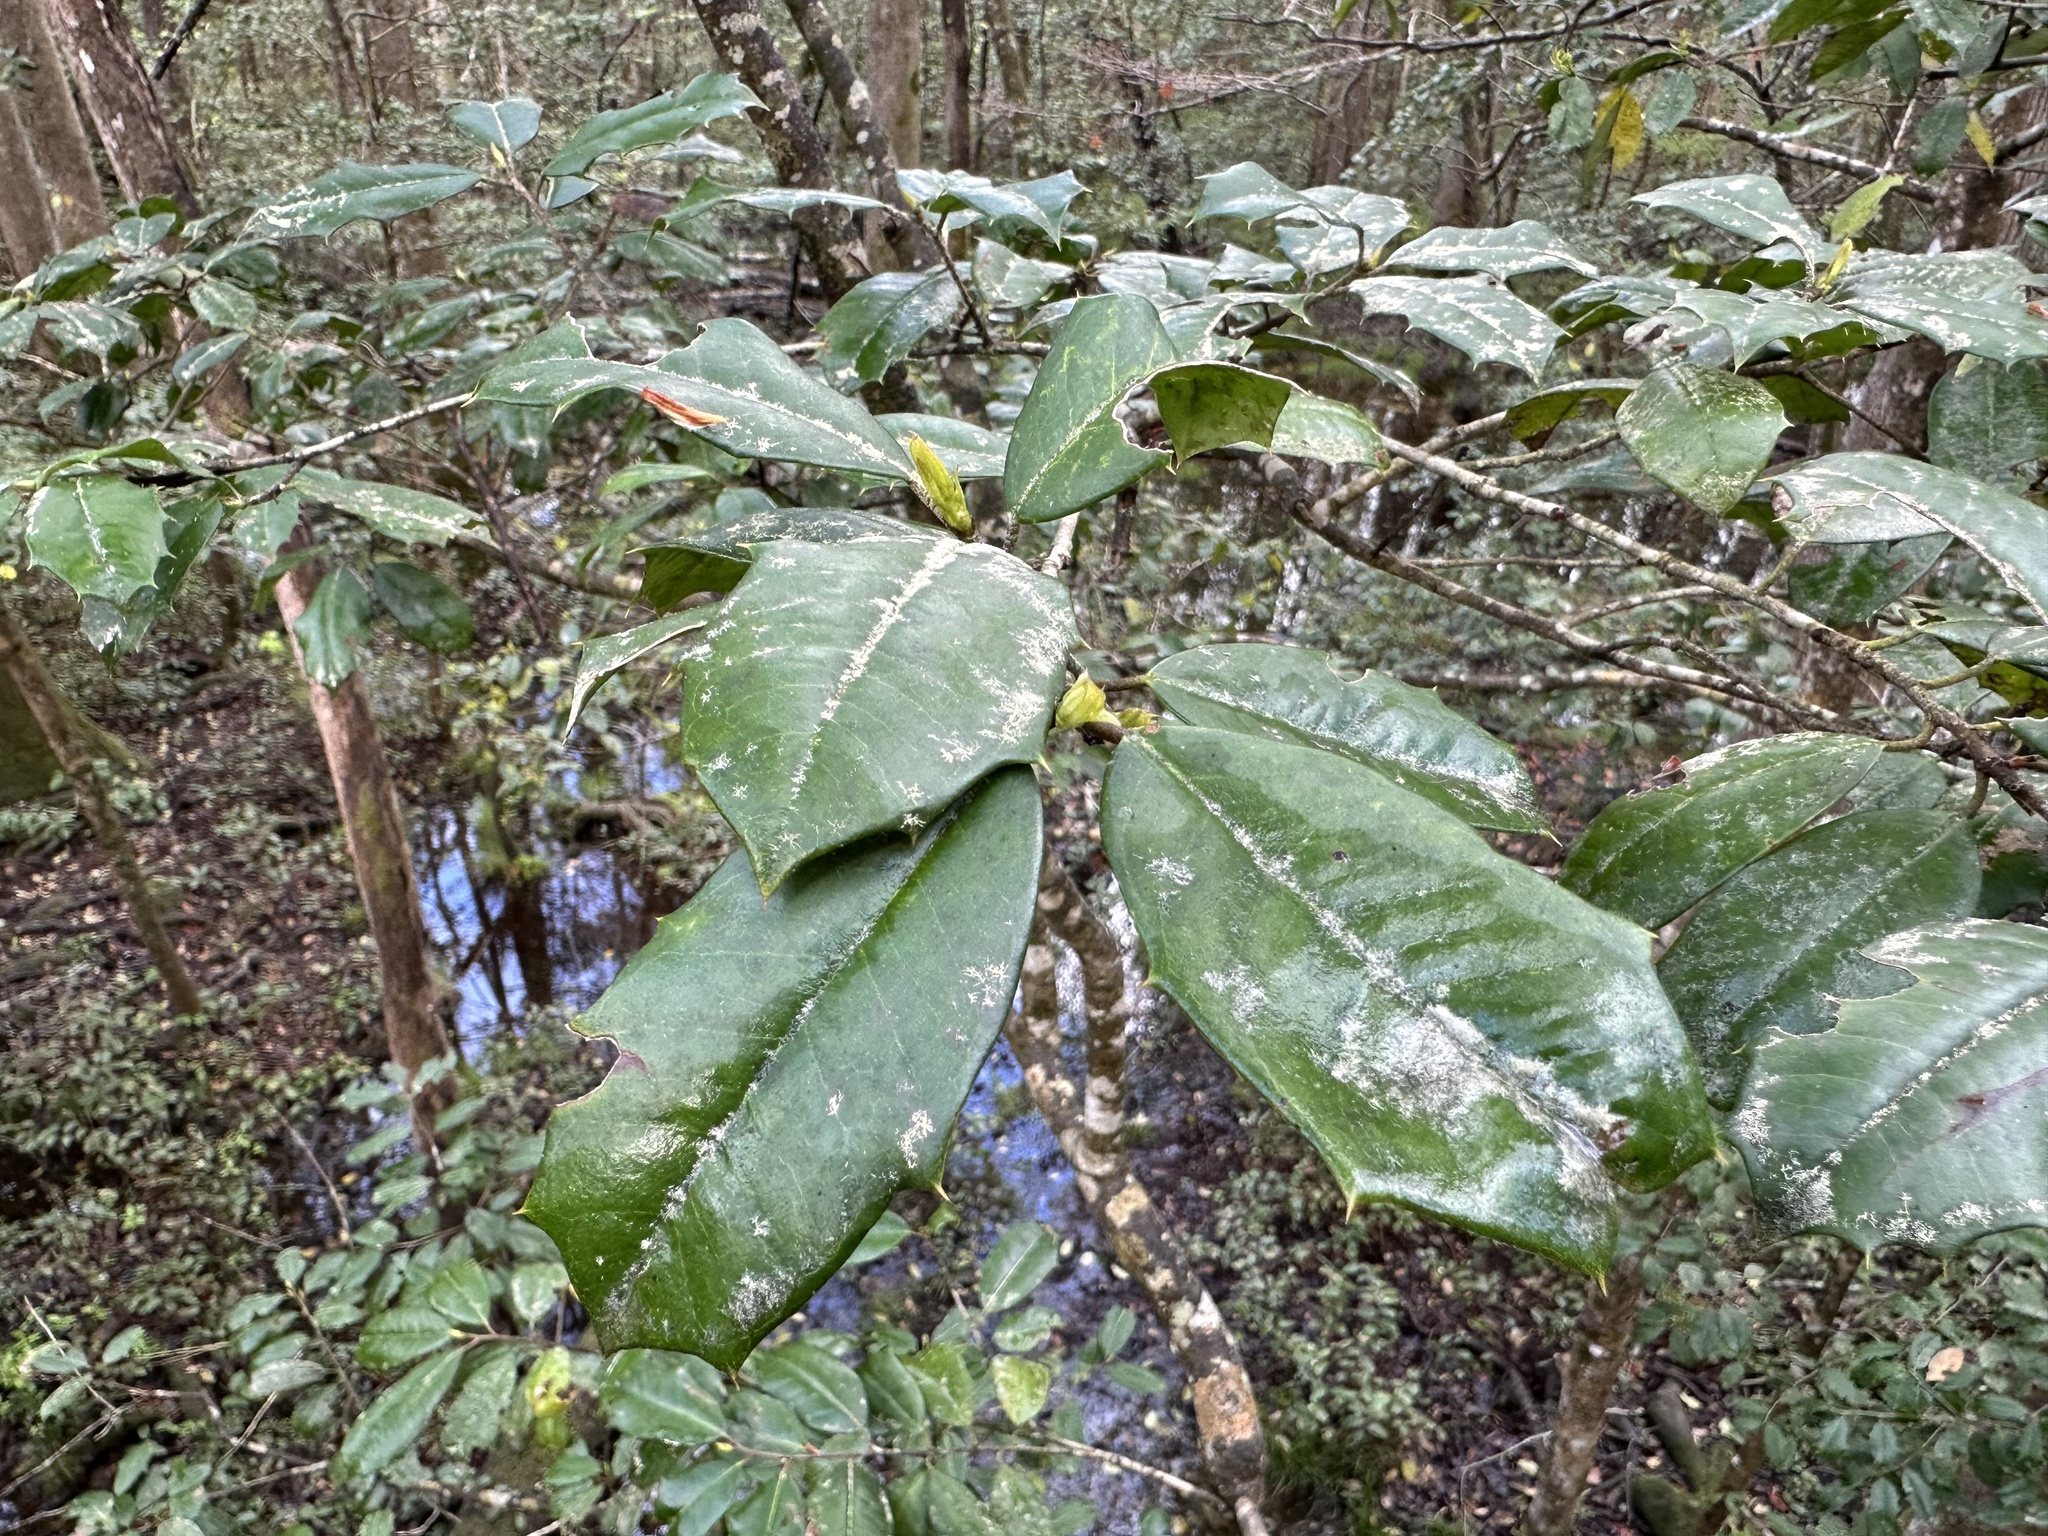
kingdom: Plantae
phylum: Tracheophyta
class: Magnoliopsida
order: Aquifoliales
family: Aquifoliaceae
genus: Ilex
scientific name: Ilex opaca
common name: American holly
